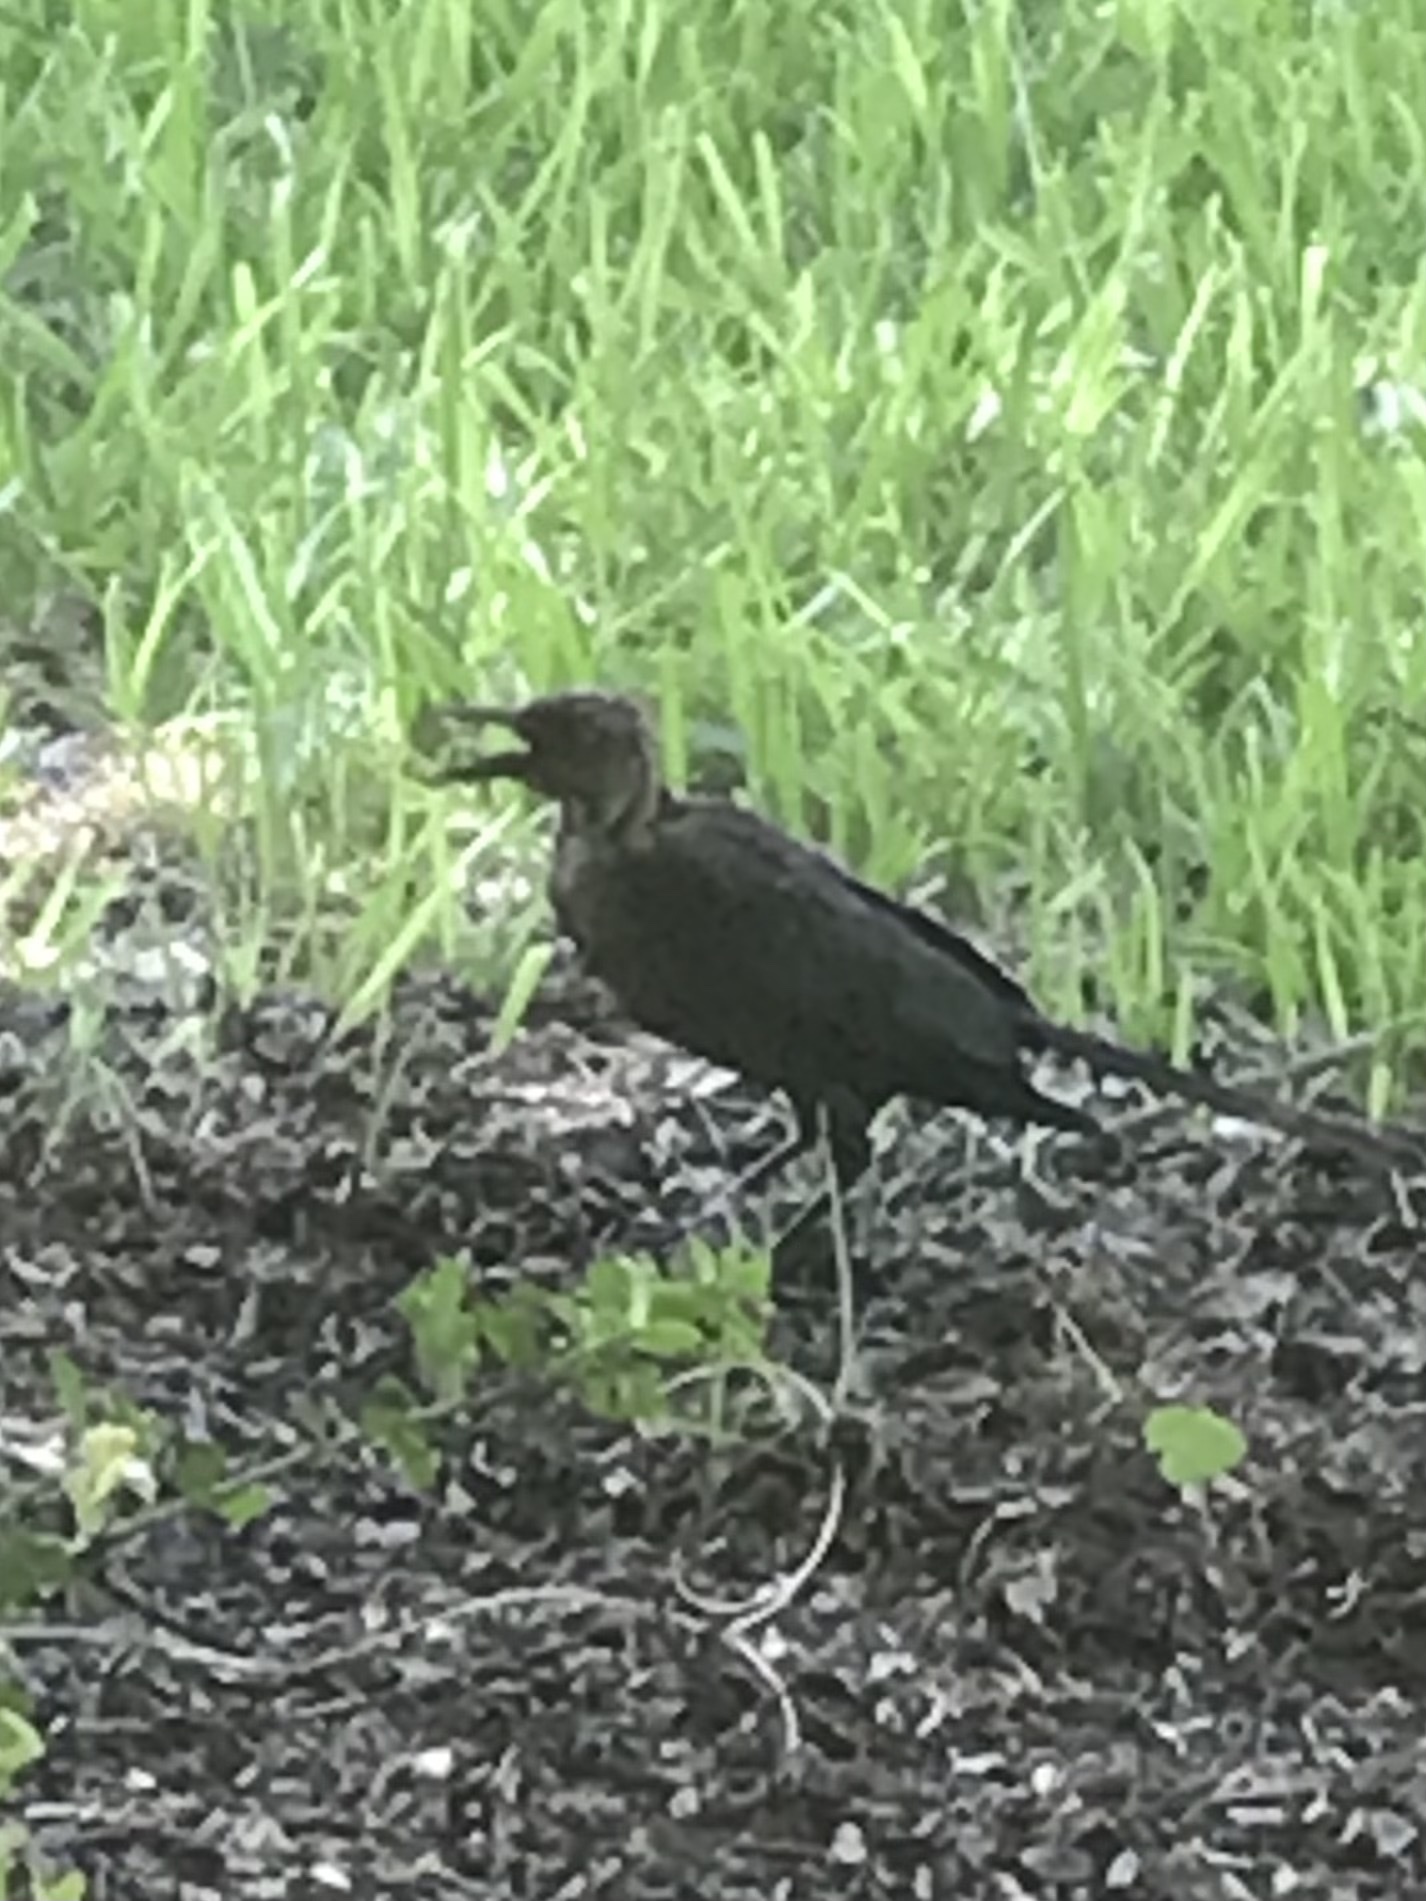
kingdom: Animalia
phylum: Chordata
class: Aves
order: Passeriformes
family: Icteridae
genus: Quiscalus
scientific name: Quiscalus mexicanus
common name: Great-tailed grackle
